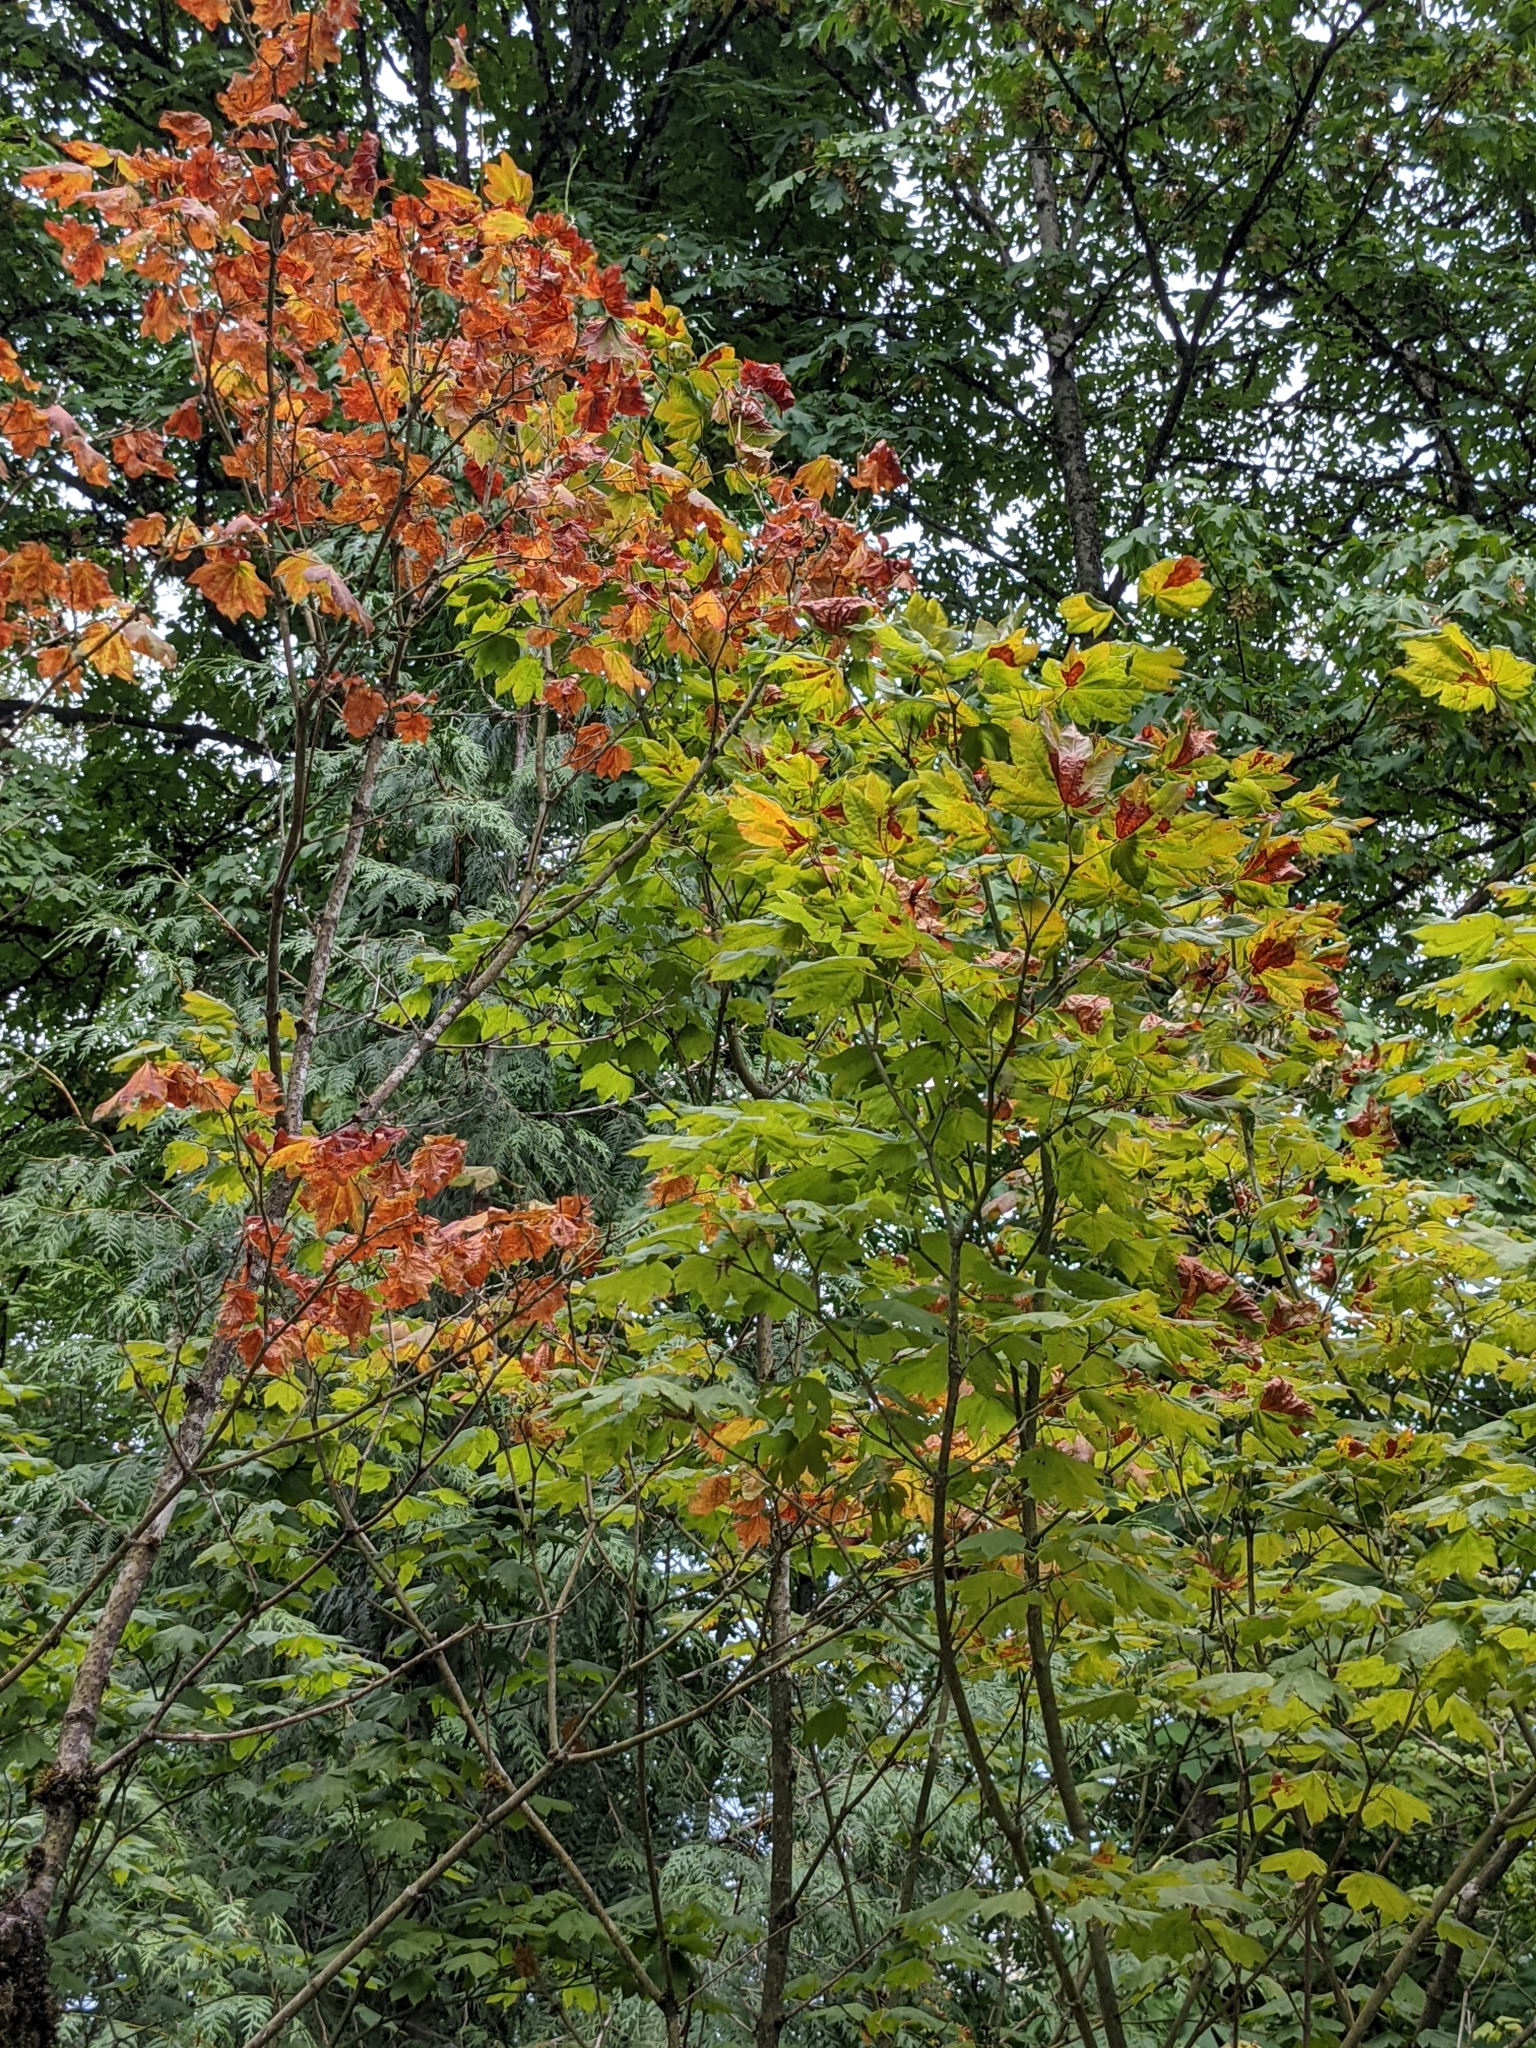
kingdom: Plantae
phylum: Tracheophyta
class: Magnoliopsida
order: Sapindales
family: Sapindaceae
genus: Acer
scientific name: Acer circinatum
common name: Vine maple
